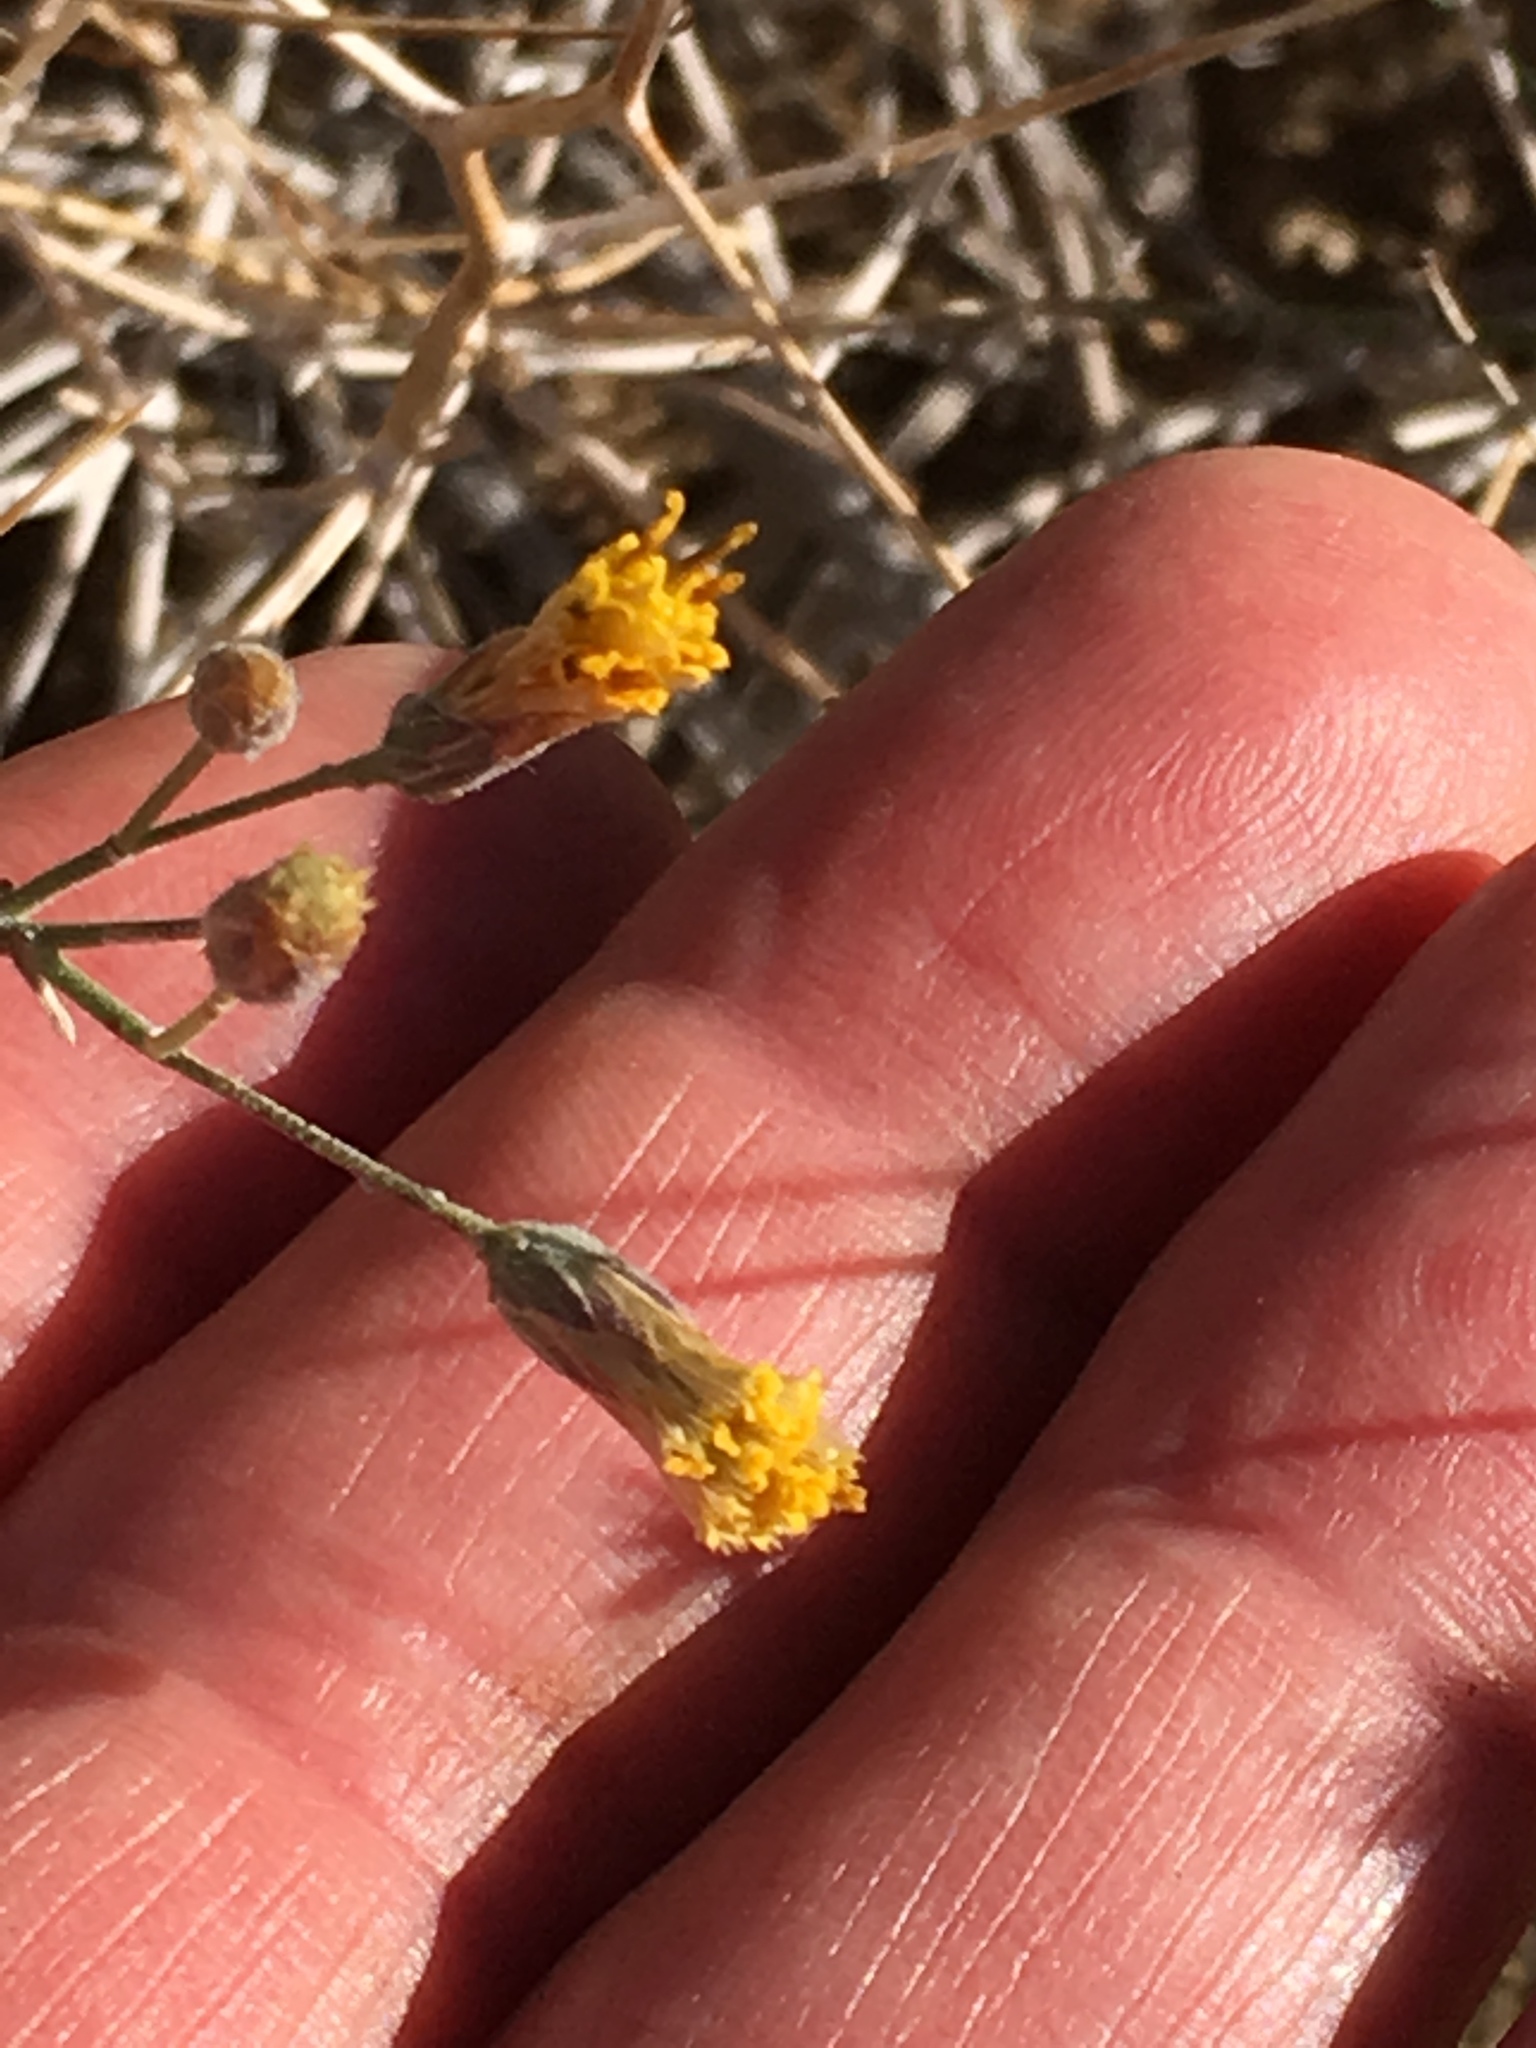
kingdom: Plantae
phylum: Tracheophyta
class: Magnoliopsida
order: Asterales
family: Asteraceae
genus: Bebbia
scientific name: Bebbia juncea
